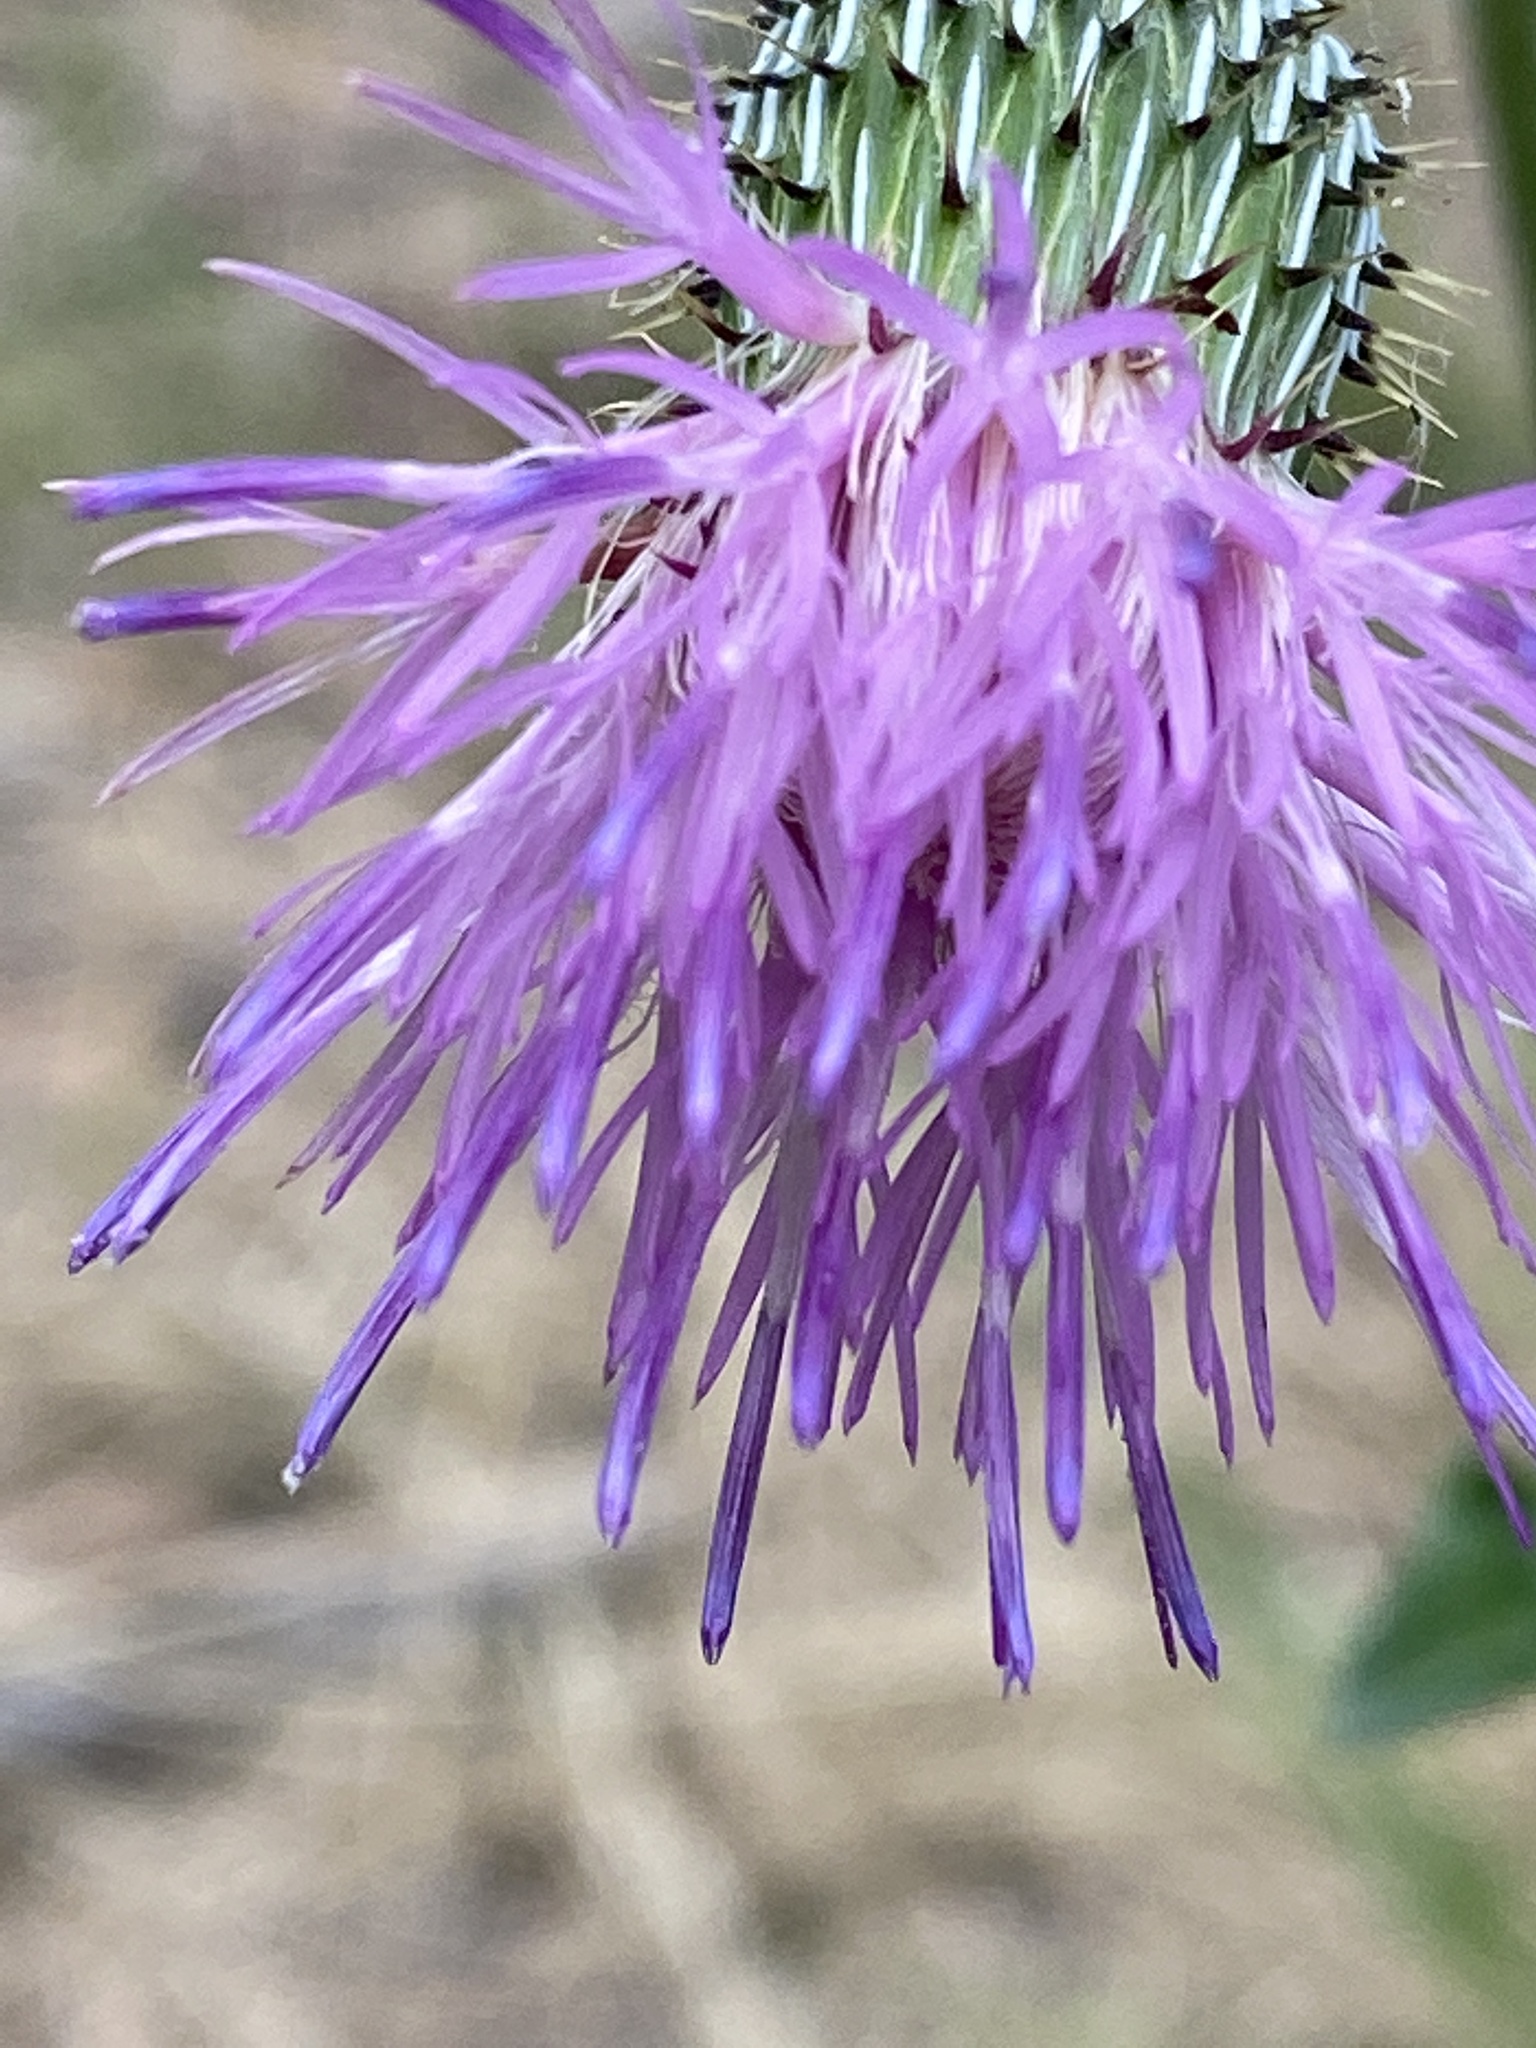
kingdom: Plantae
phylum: Tracheophyta
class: Magnoliopsida
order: Asterales
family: Asteraceae
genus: Cirsium
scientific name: Cirsium texanum
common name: Texas purple thistle
